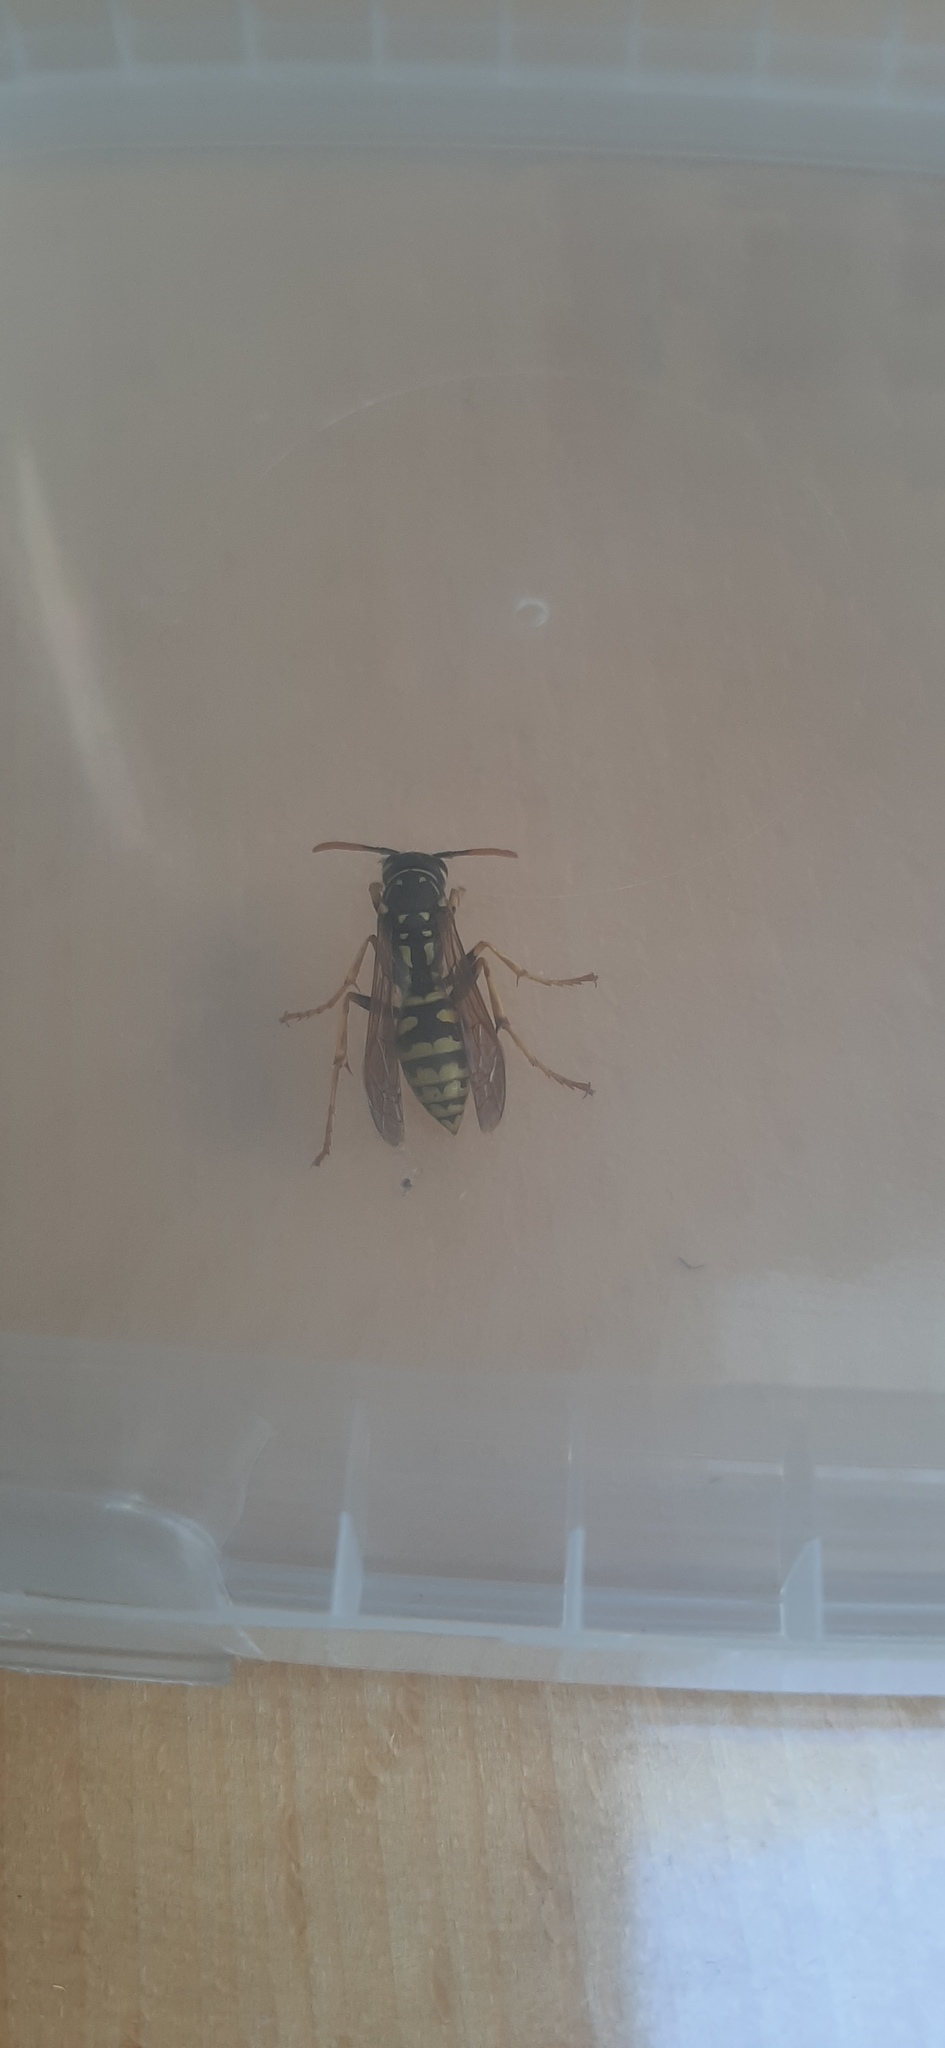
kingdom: Animalia
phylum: Arthropoda
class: Insecta
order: Hymenoptera
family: Eumenidae
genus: Polistes
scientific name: Polistes dominula
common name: Paper wasp
